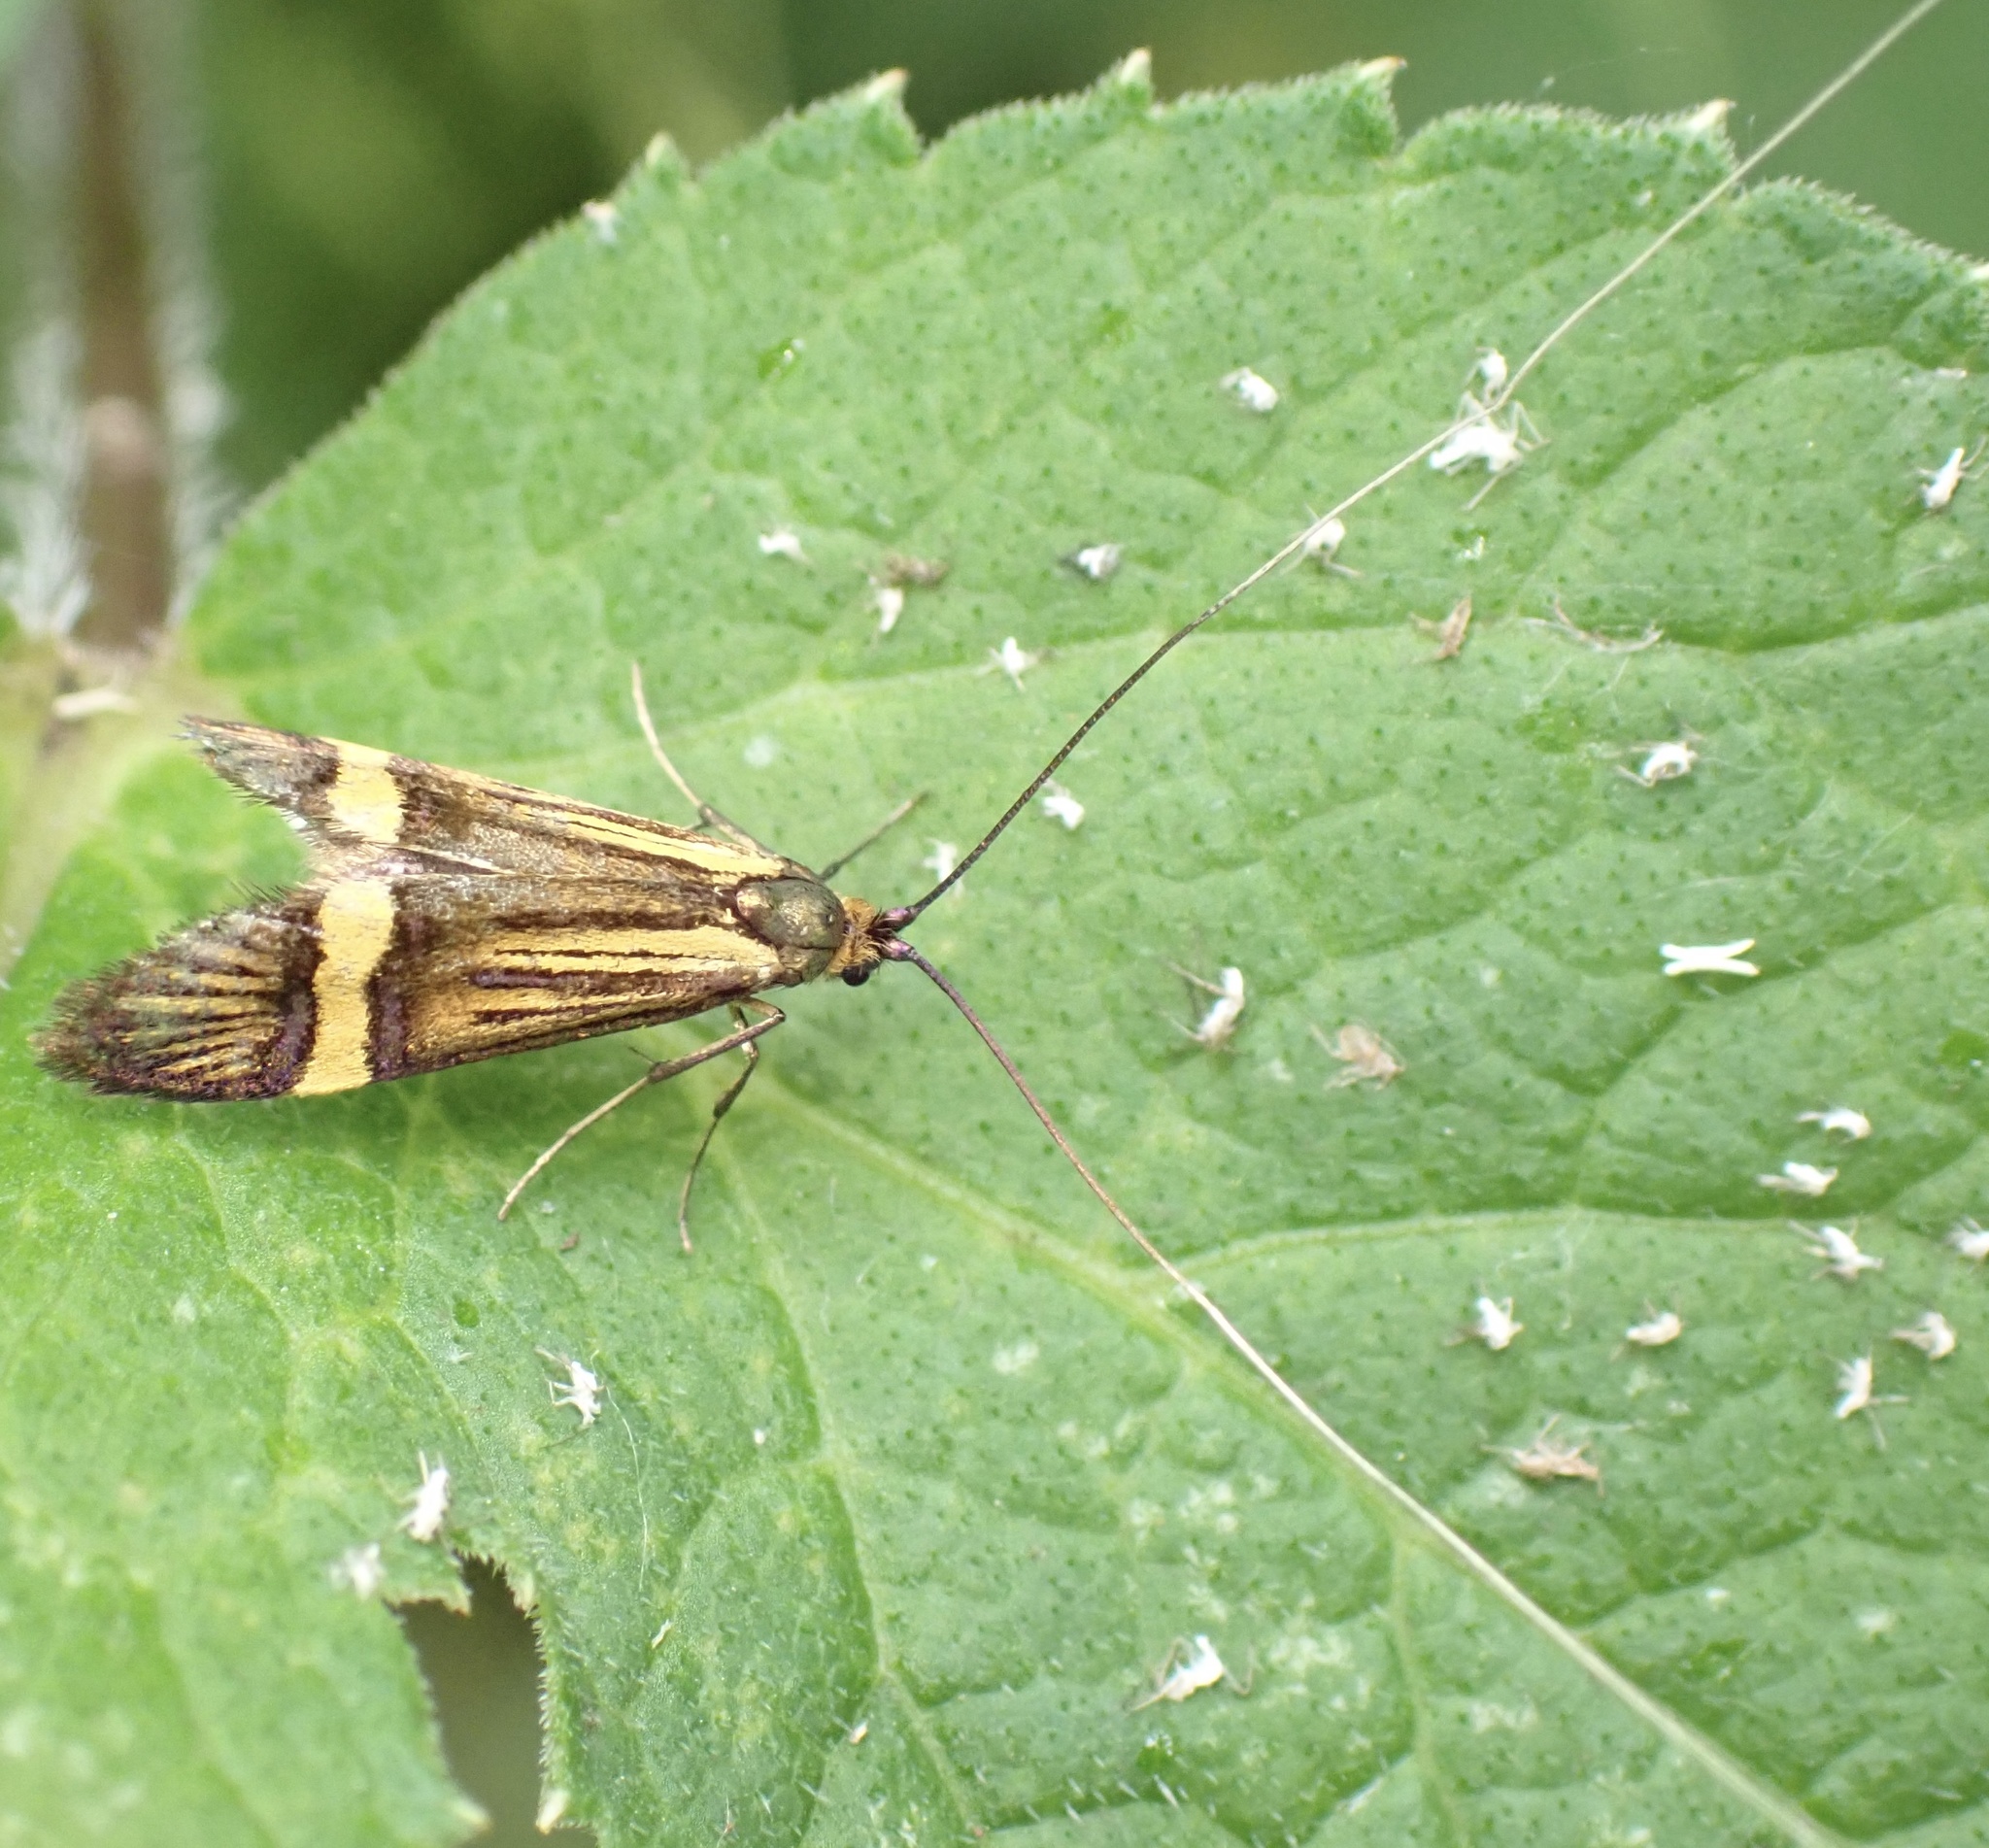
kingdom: Animalia
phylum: Arthropoda
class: Insecta
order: Lepidoptera
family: Adelidae
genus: Nemophora
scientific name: Nemophora degeerella
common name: Yellow-barred long-horn
